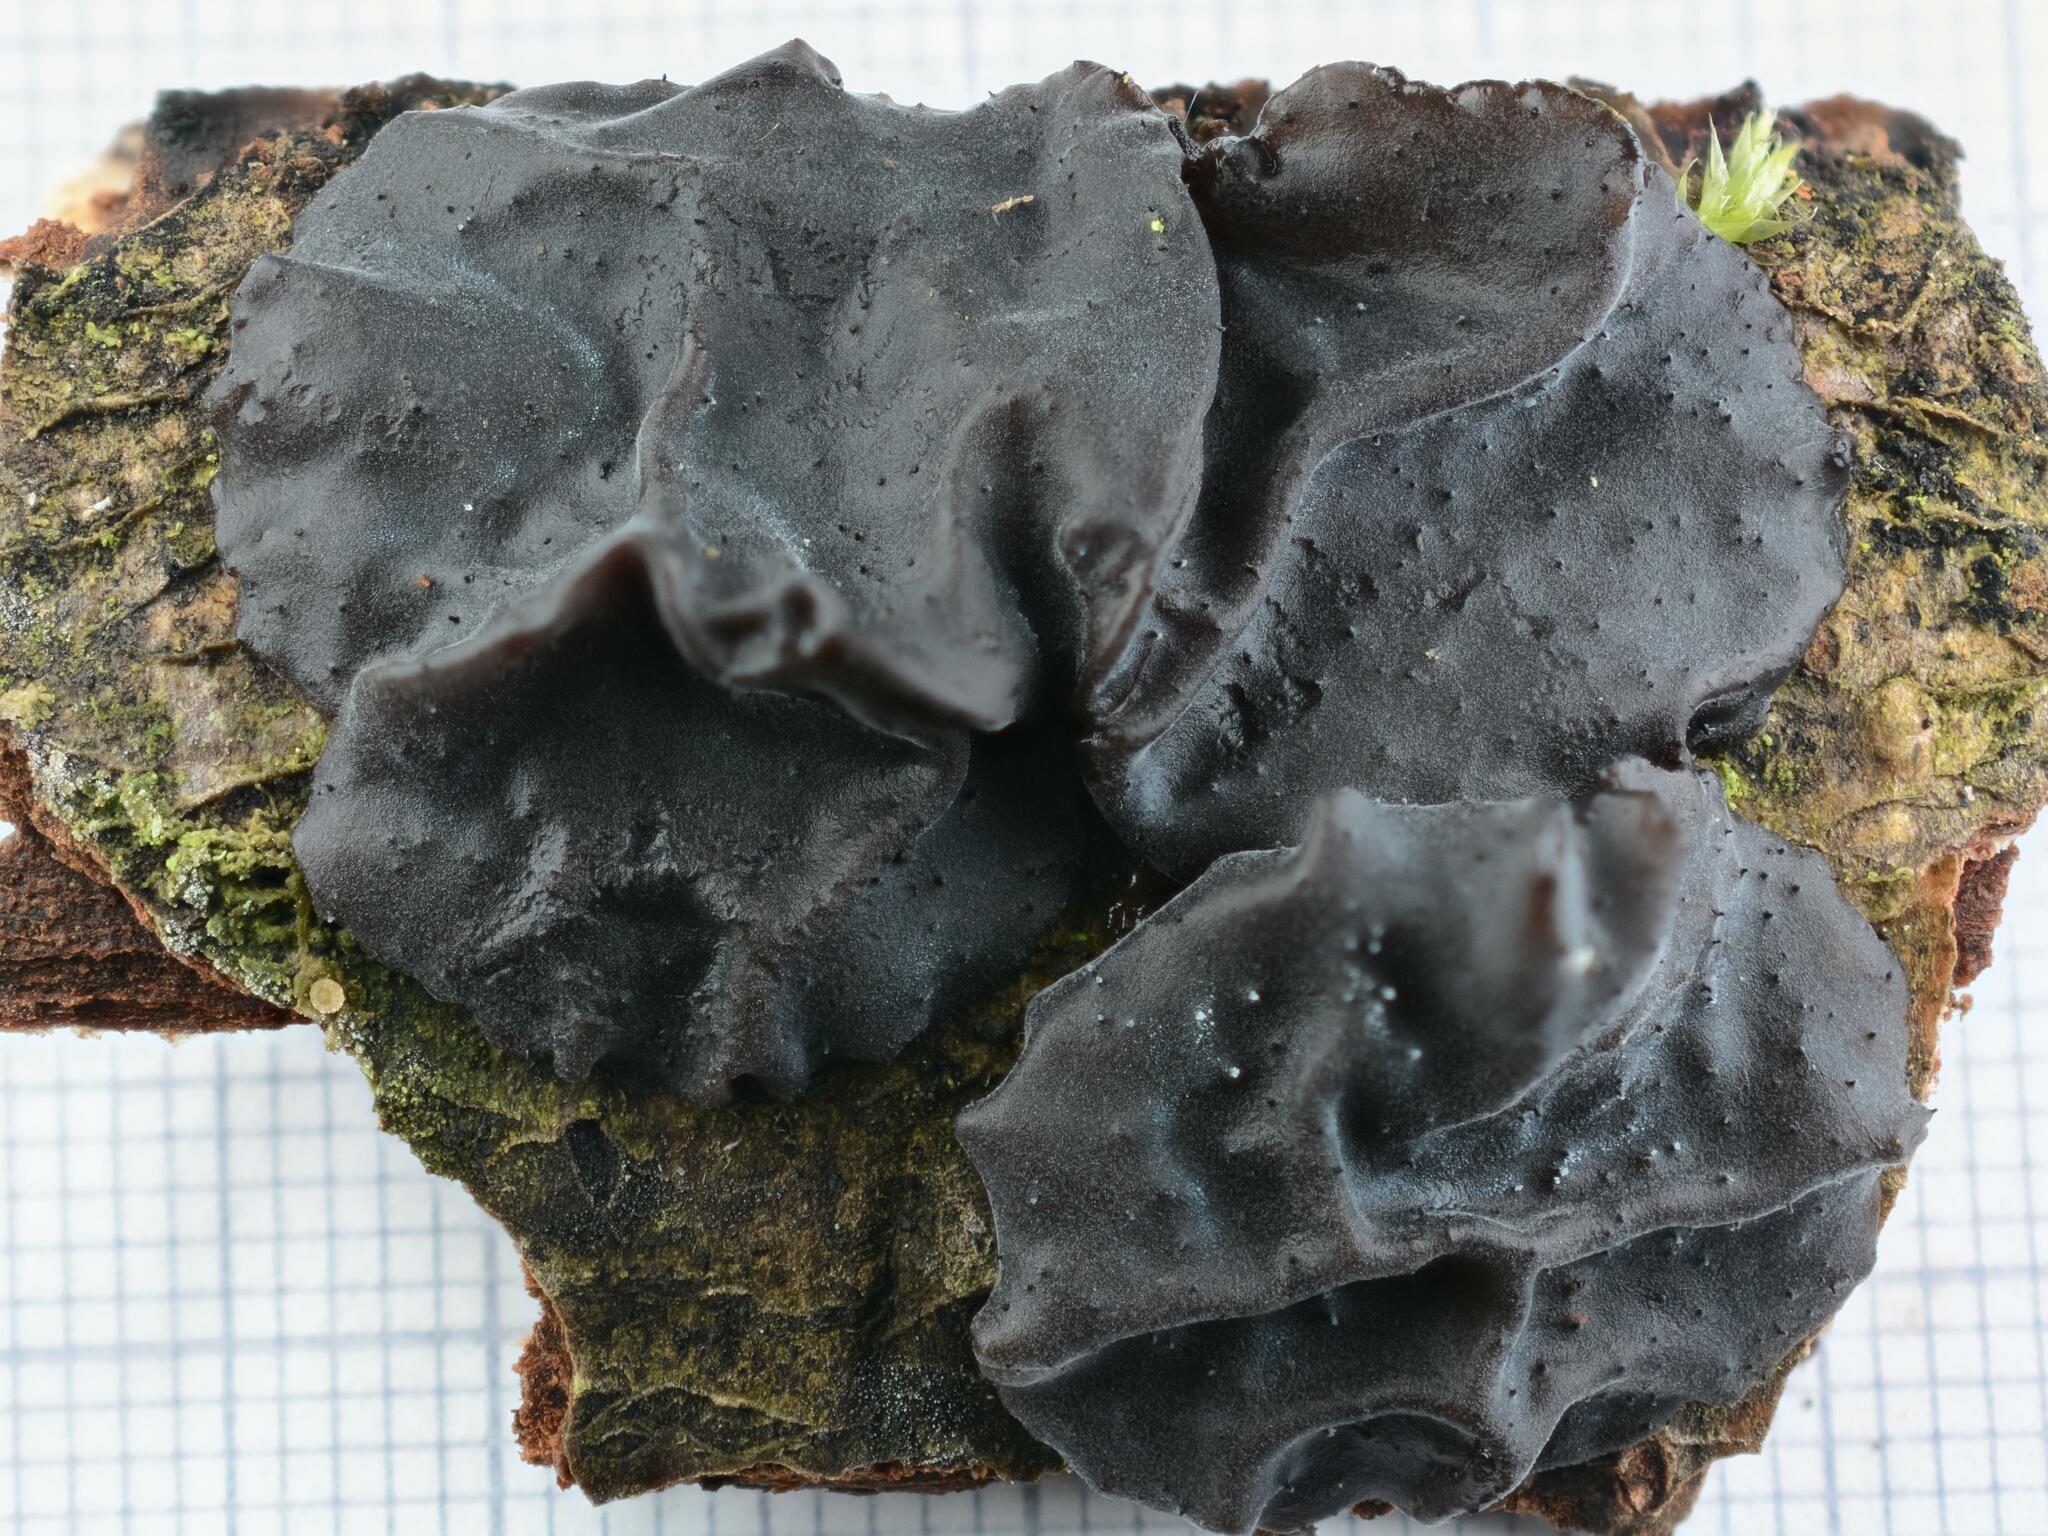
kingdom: Fungi
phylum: Basidiomycota
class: Agaricomycetes
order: Auriculariales
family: Auriculariaceae
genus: Exidia
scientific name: Exidia glandulosa
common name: Witches' butter
